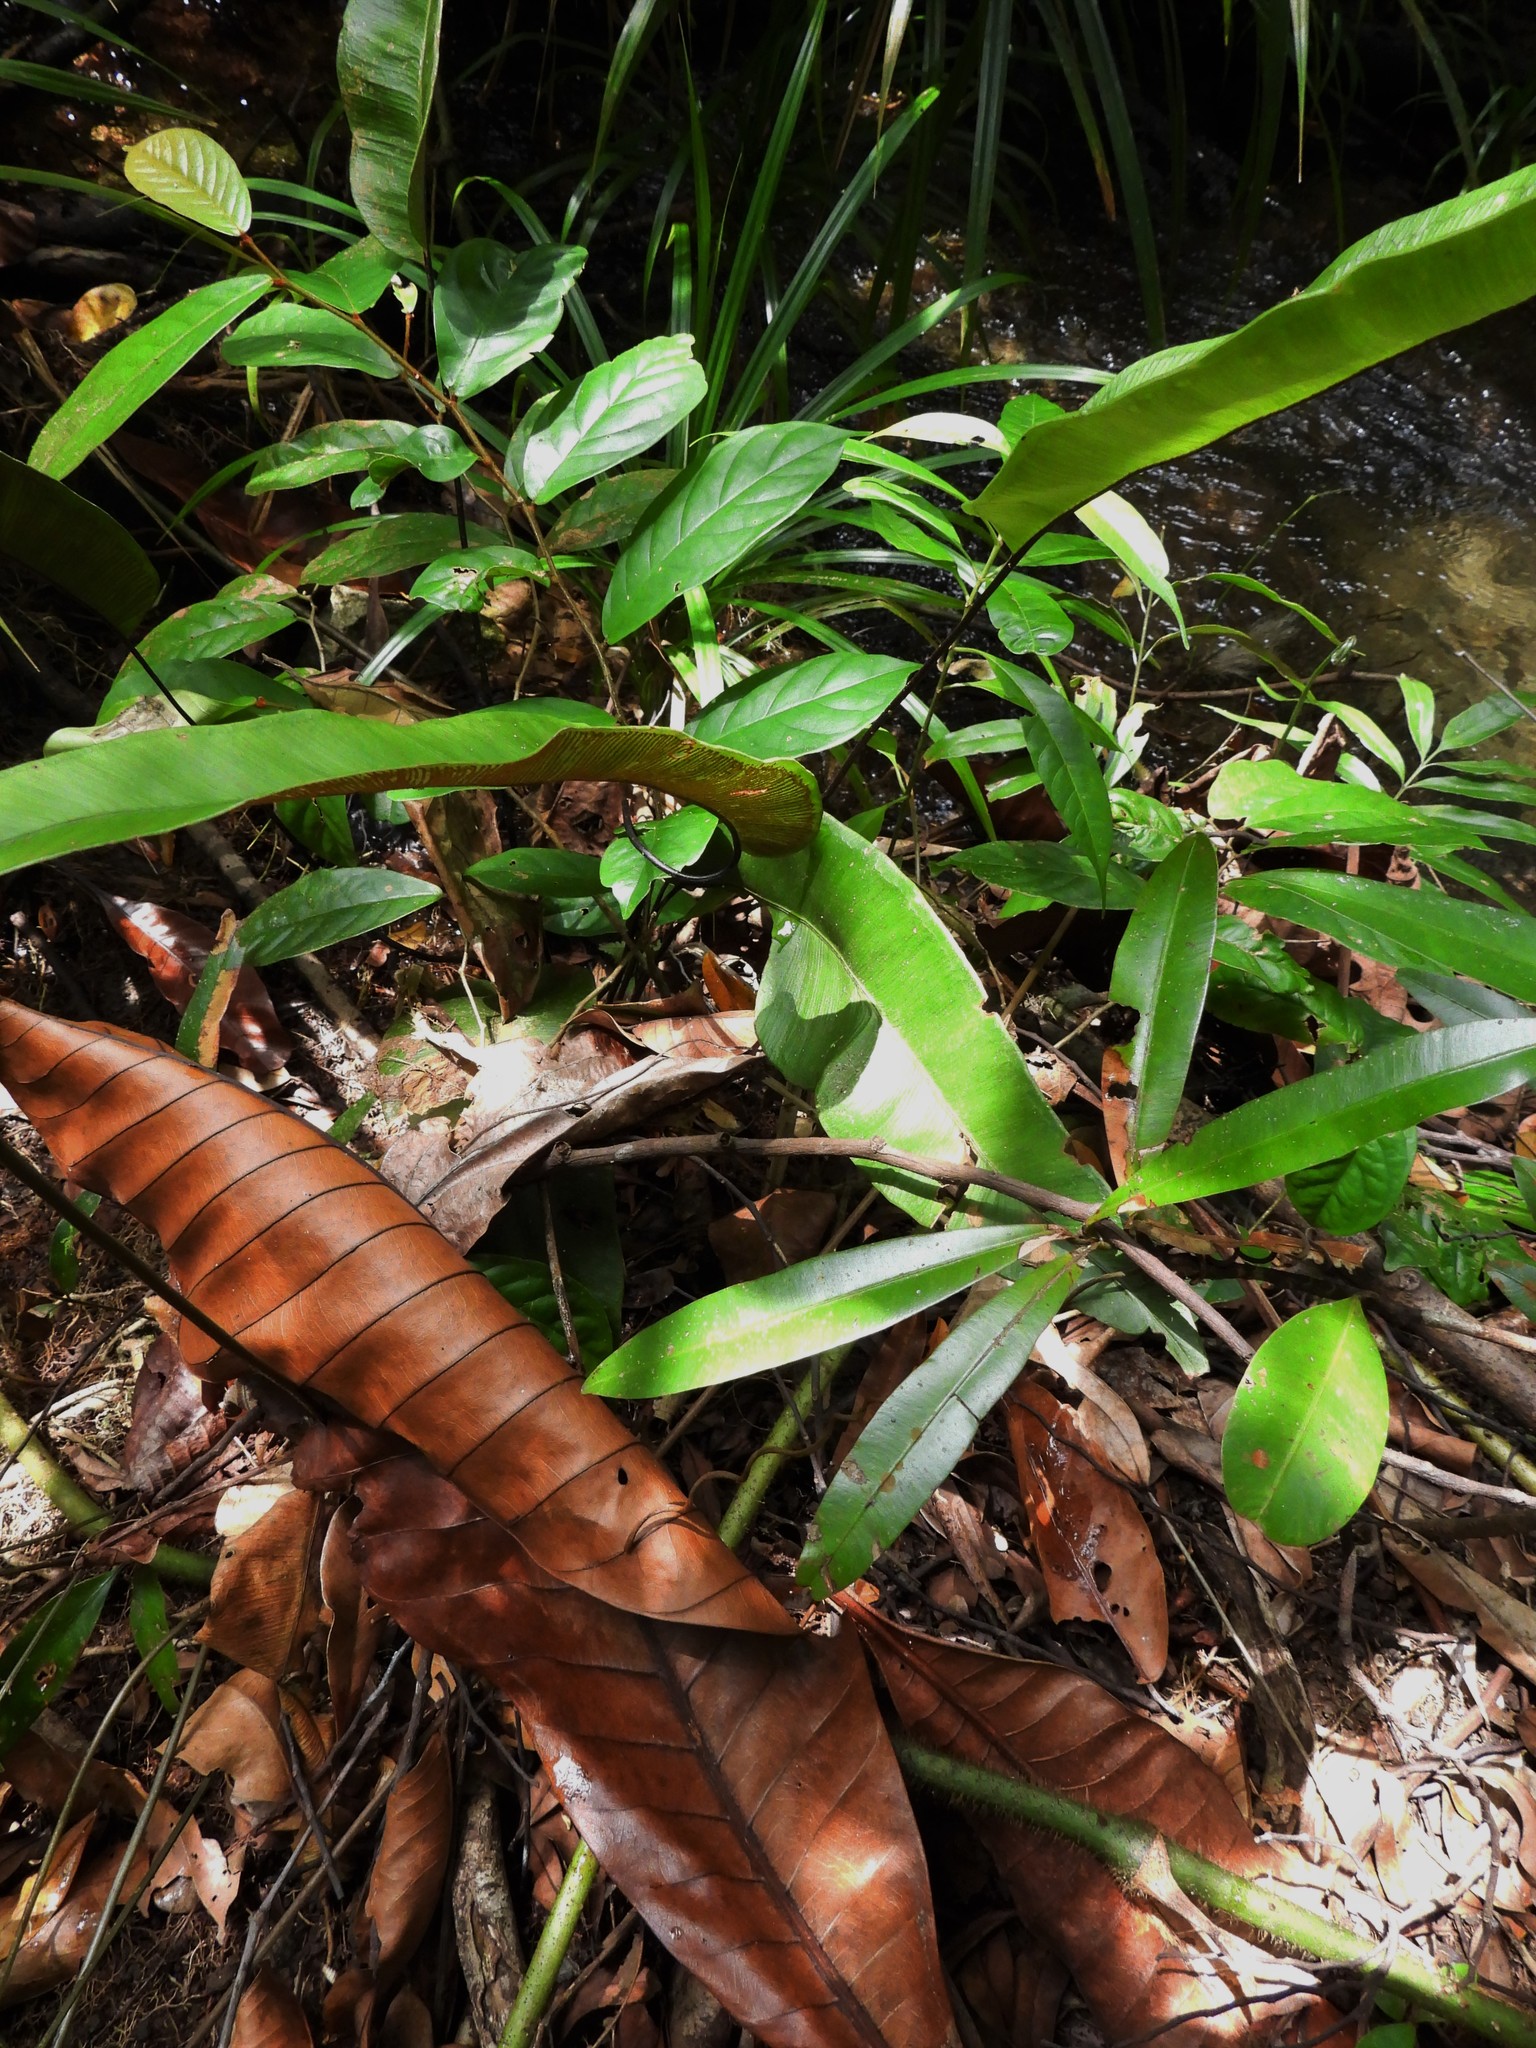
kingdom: Plantae
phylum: Tracheophyta
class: Polypodiopsida
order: Polypodiales
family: Pteridaceae
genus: Syngramma
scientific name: Syngramma alismifolia
